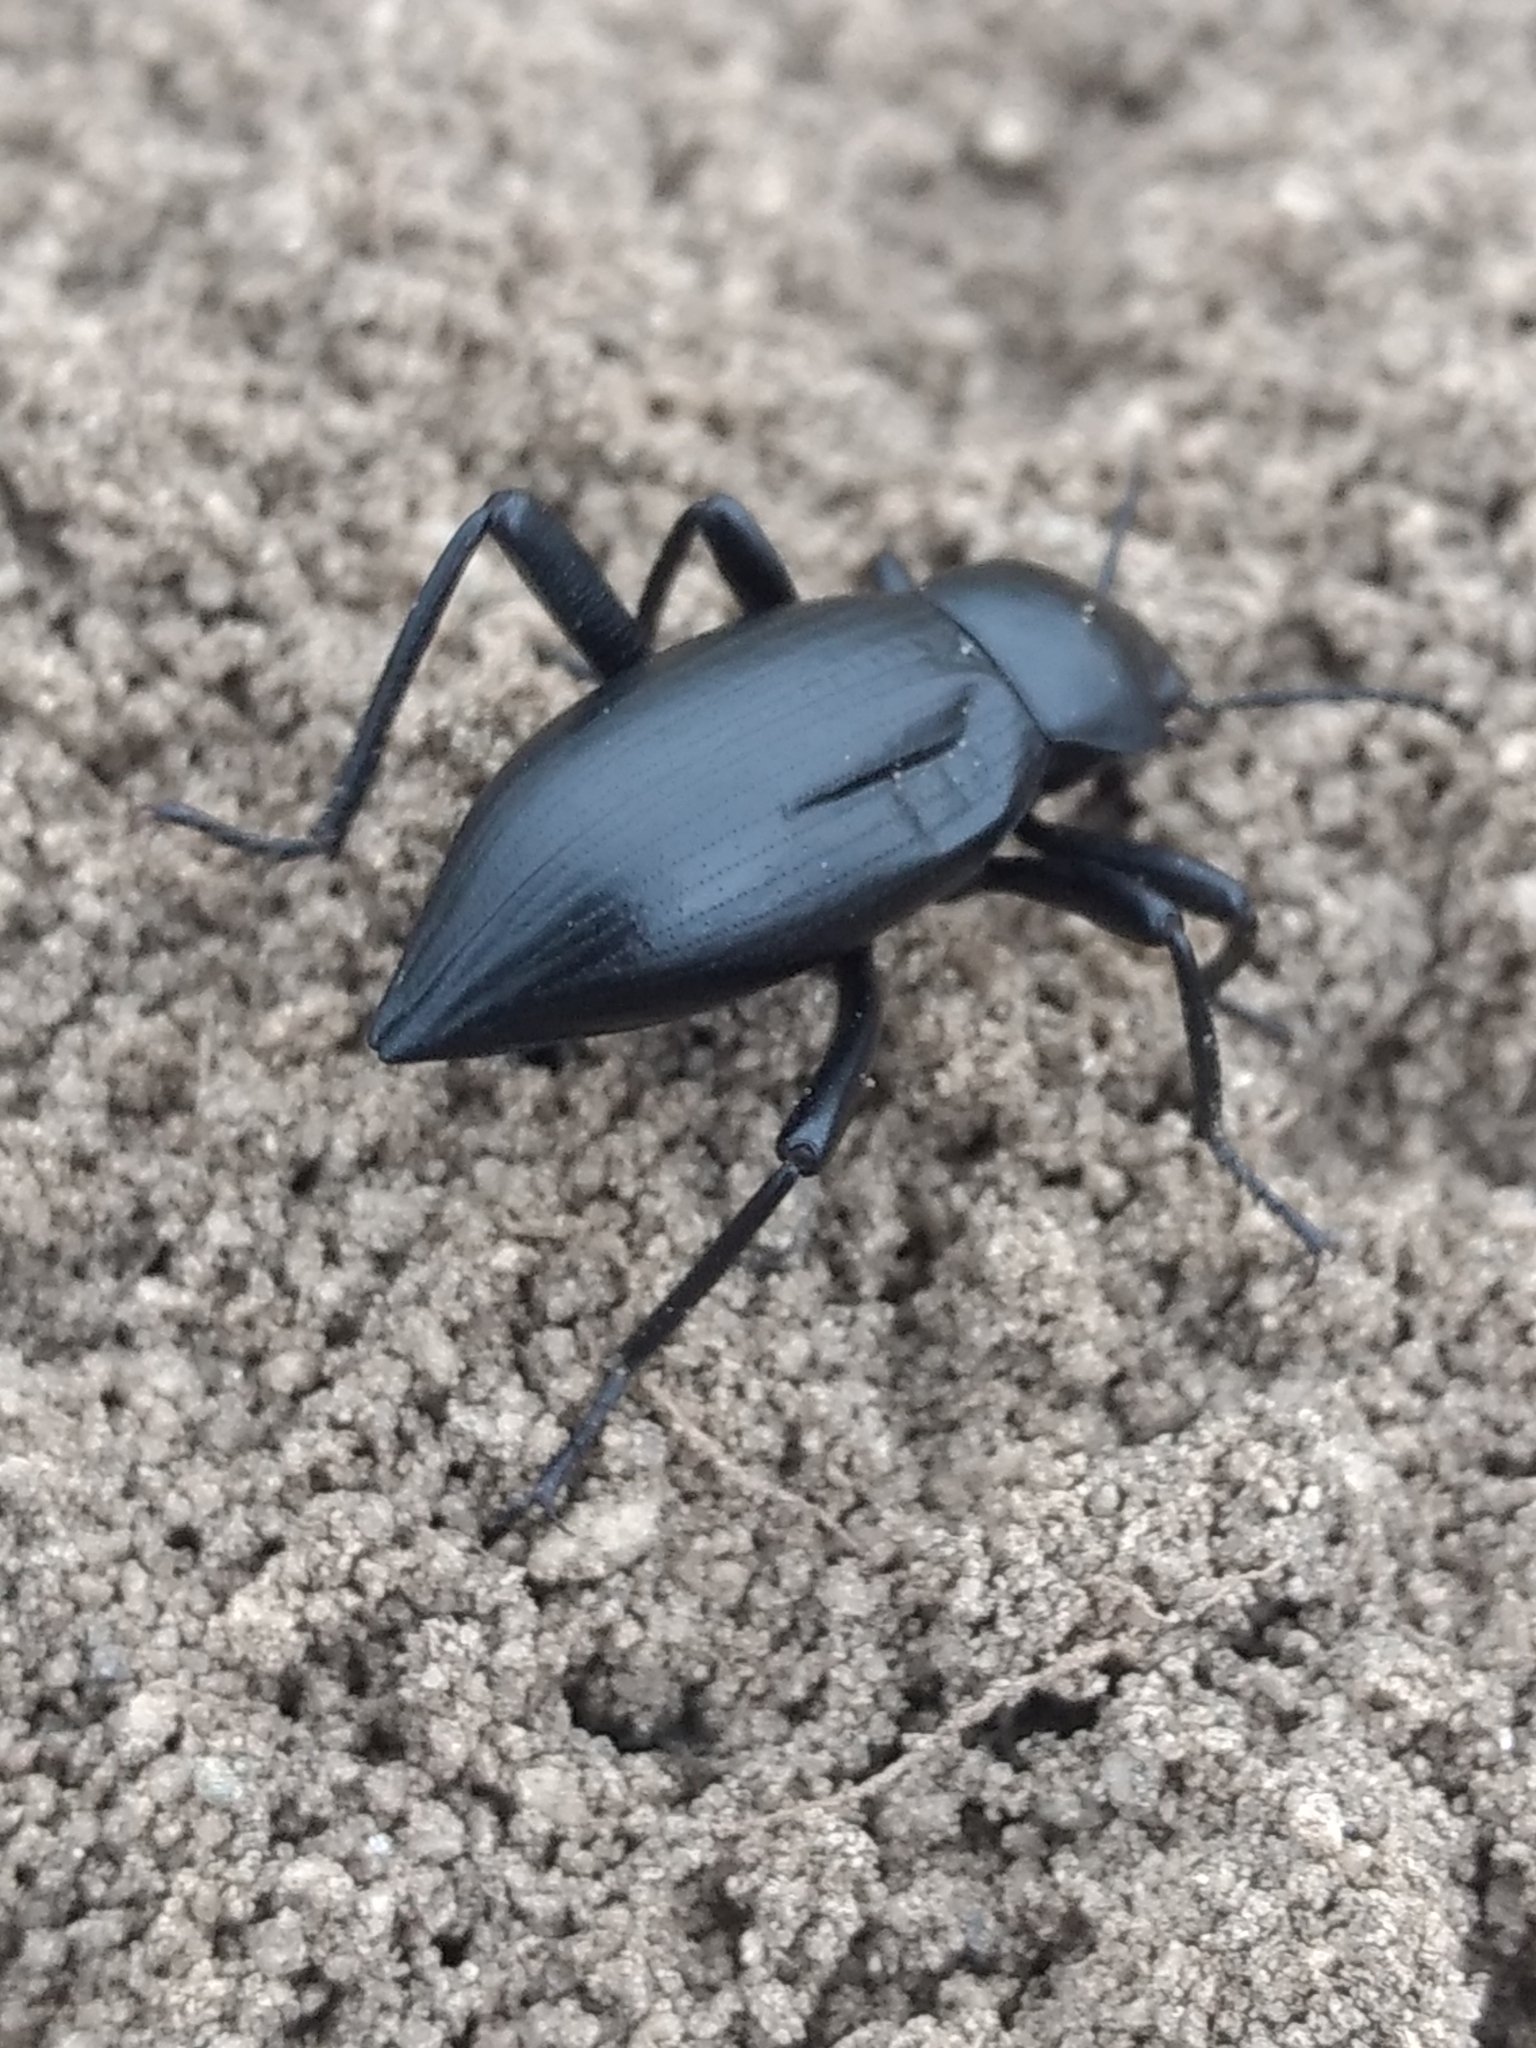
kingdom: Animalia
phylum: Arthropoda
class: Insecta
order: Coleoptera
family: Tenebrionidae
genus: Eleodes
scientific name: Eleodes gracilis
